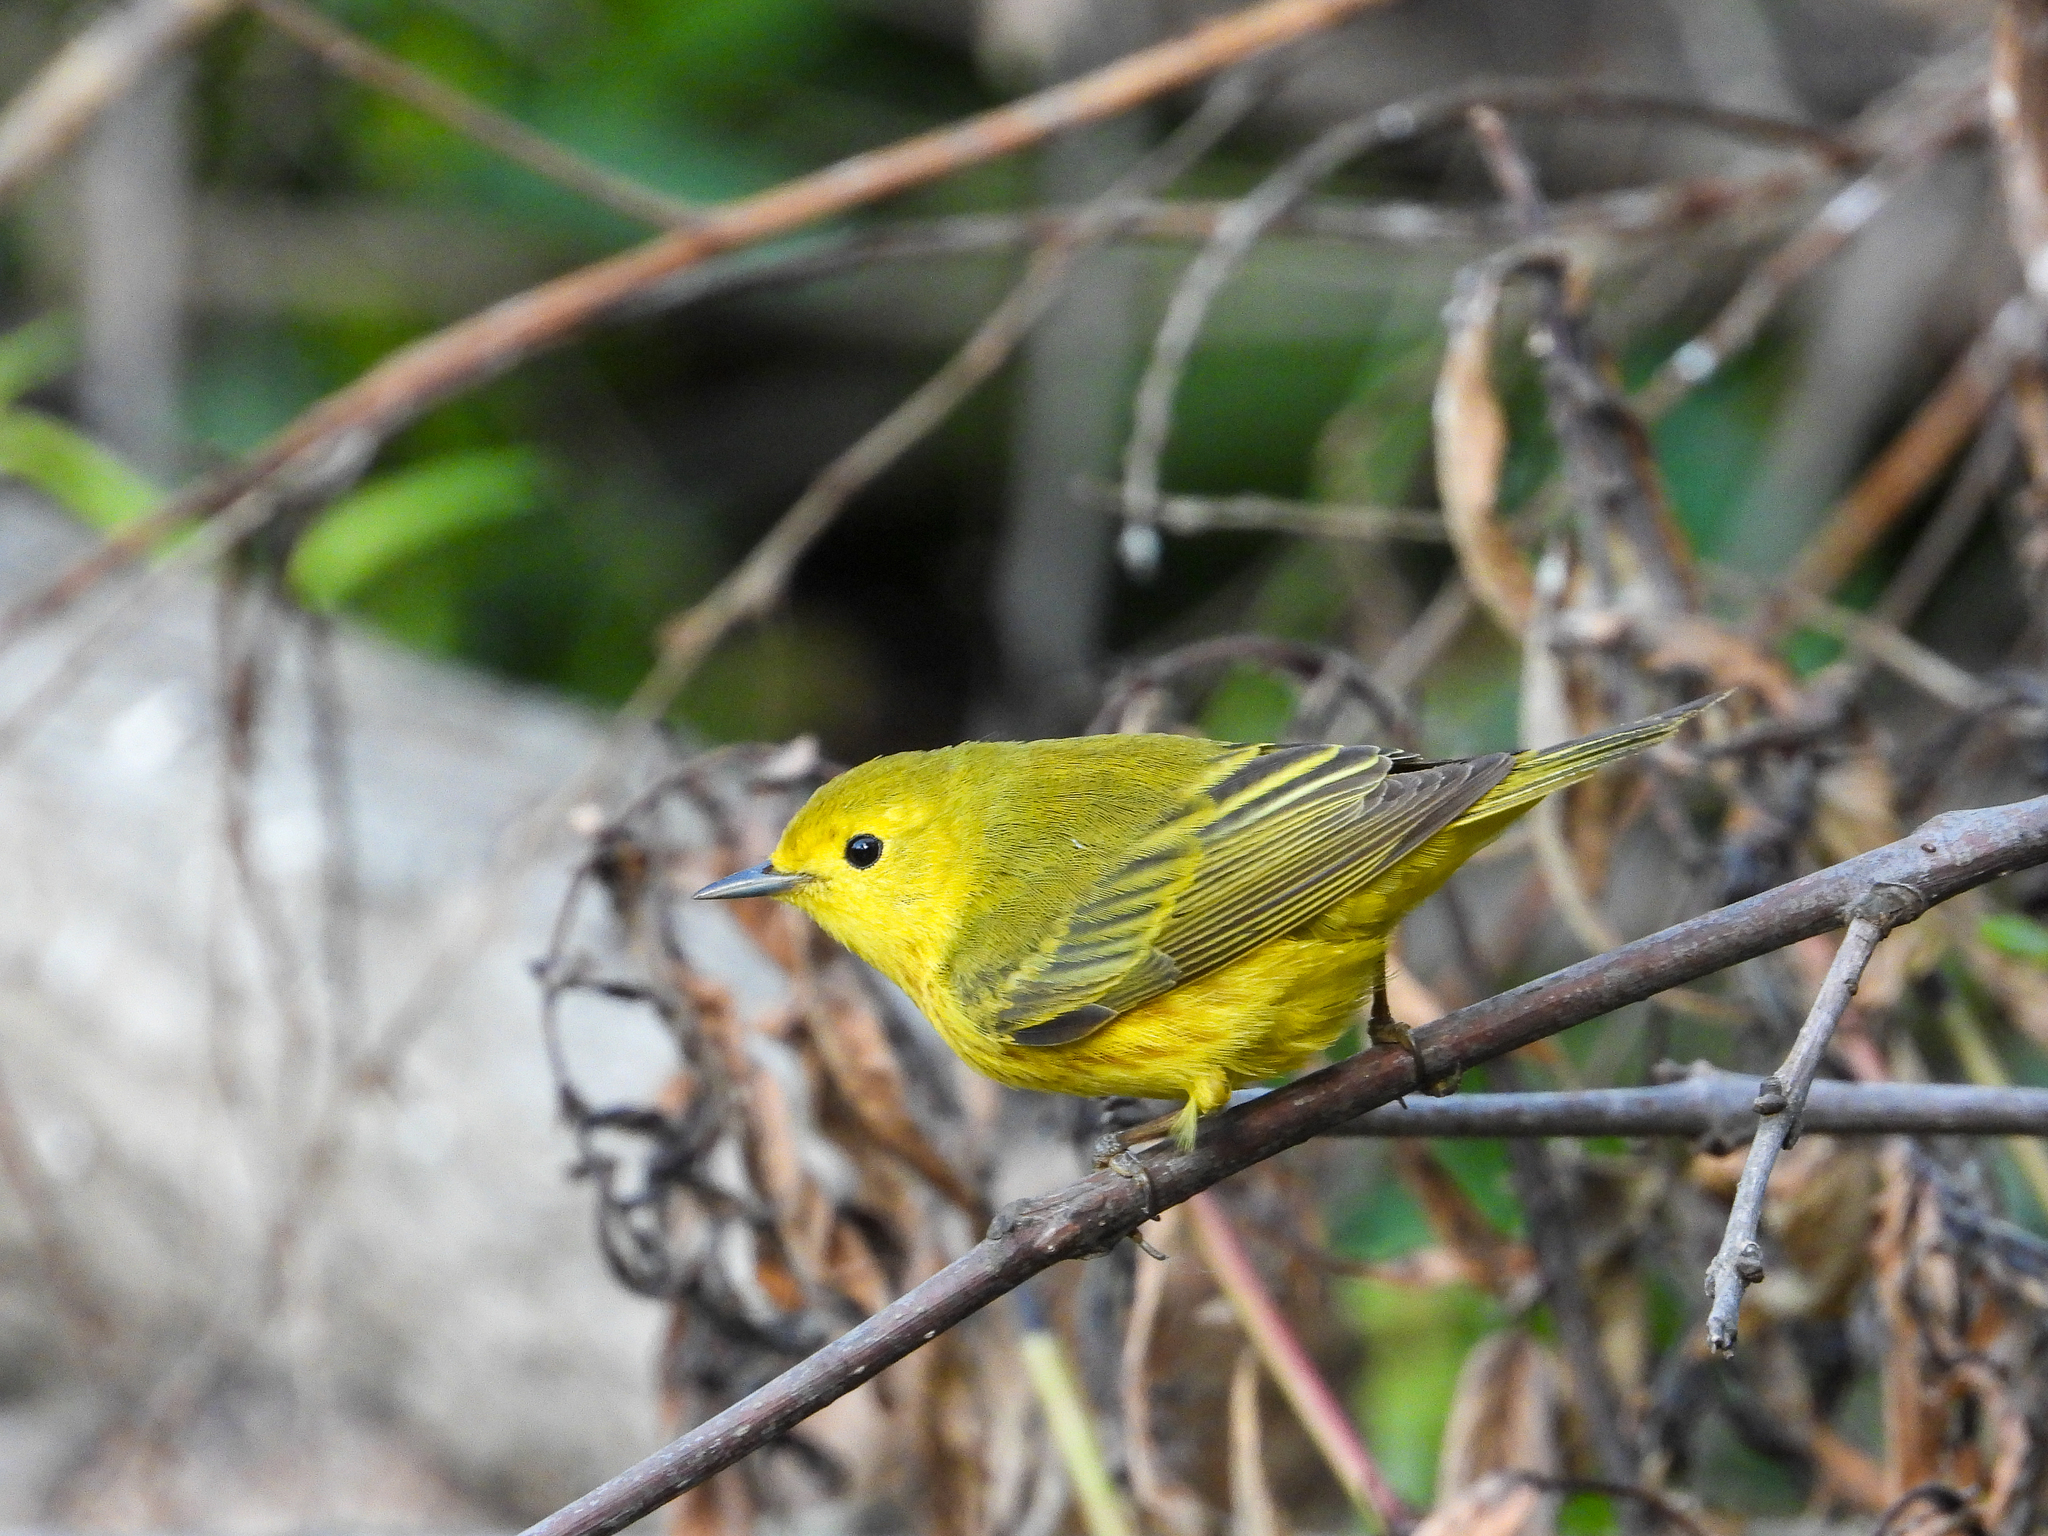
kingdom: Animalia
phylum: Chordata
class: Aves
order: Passeriformes
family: Parulidae
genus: Setophaga
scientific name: Setophaga petechia
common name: Yellow warbler
